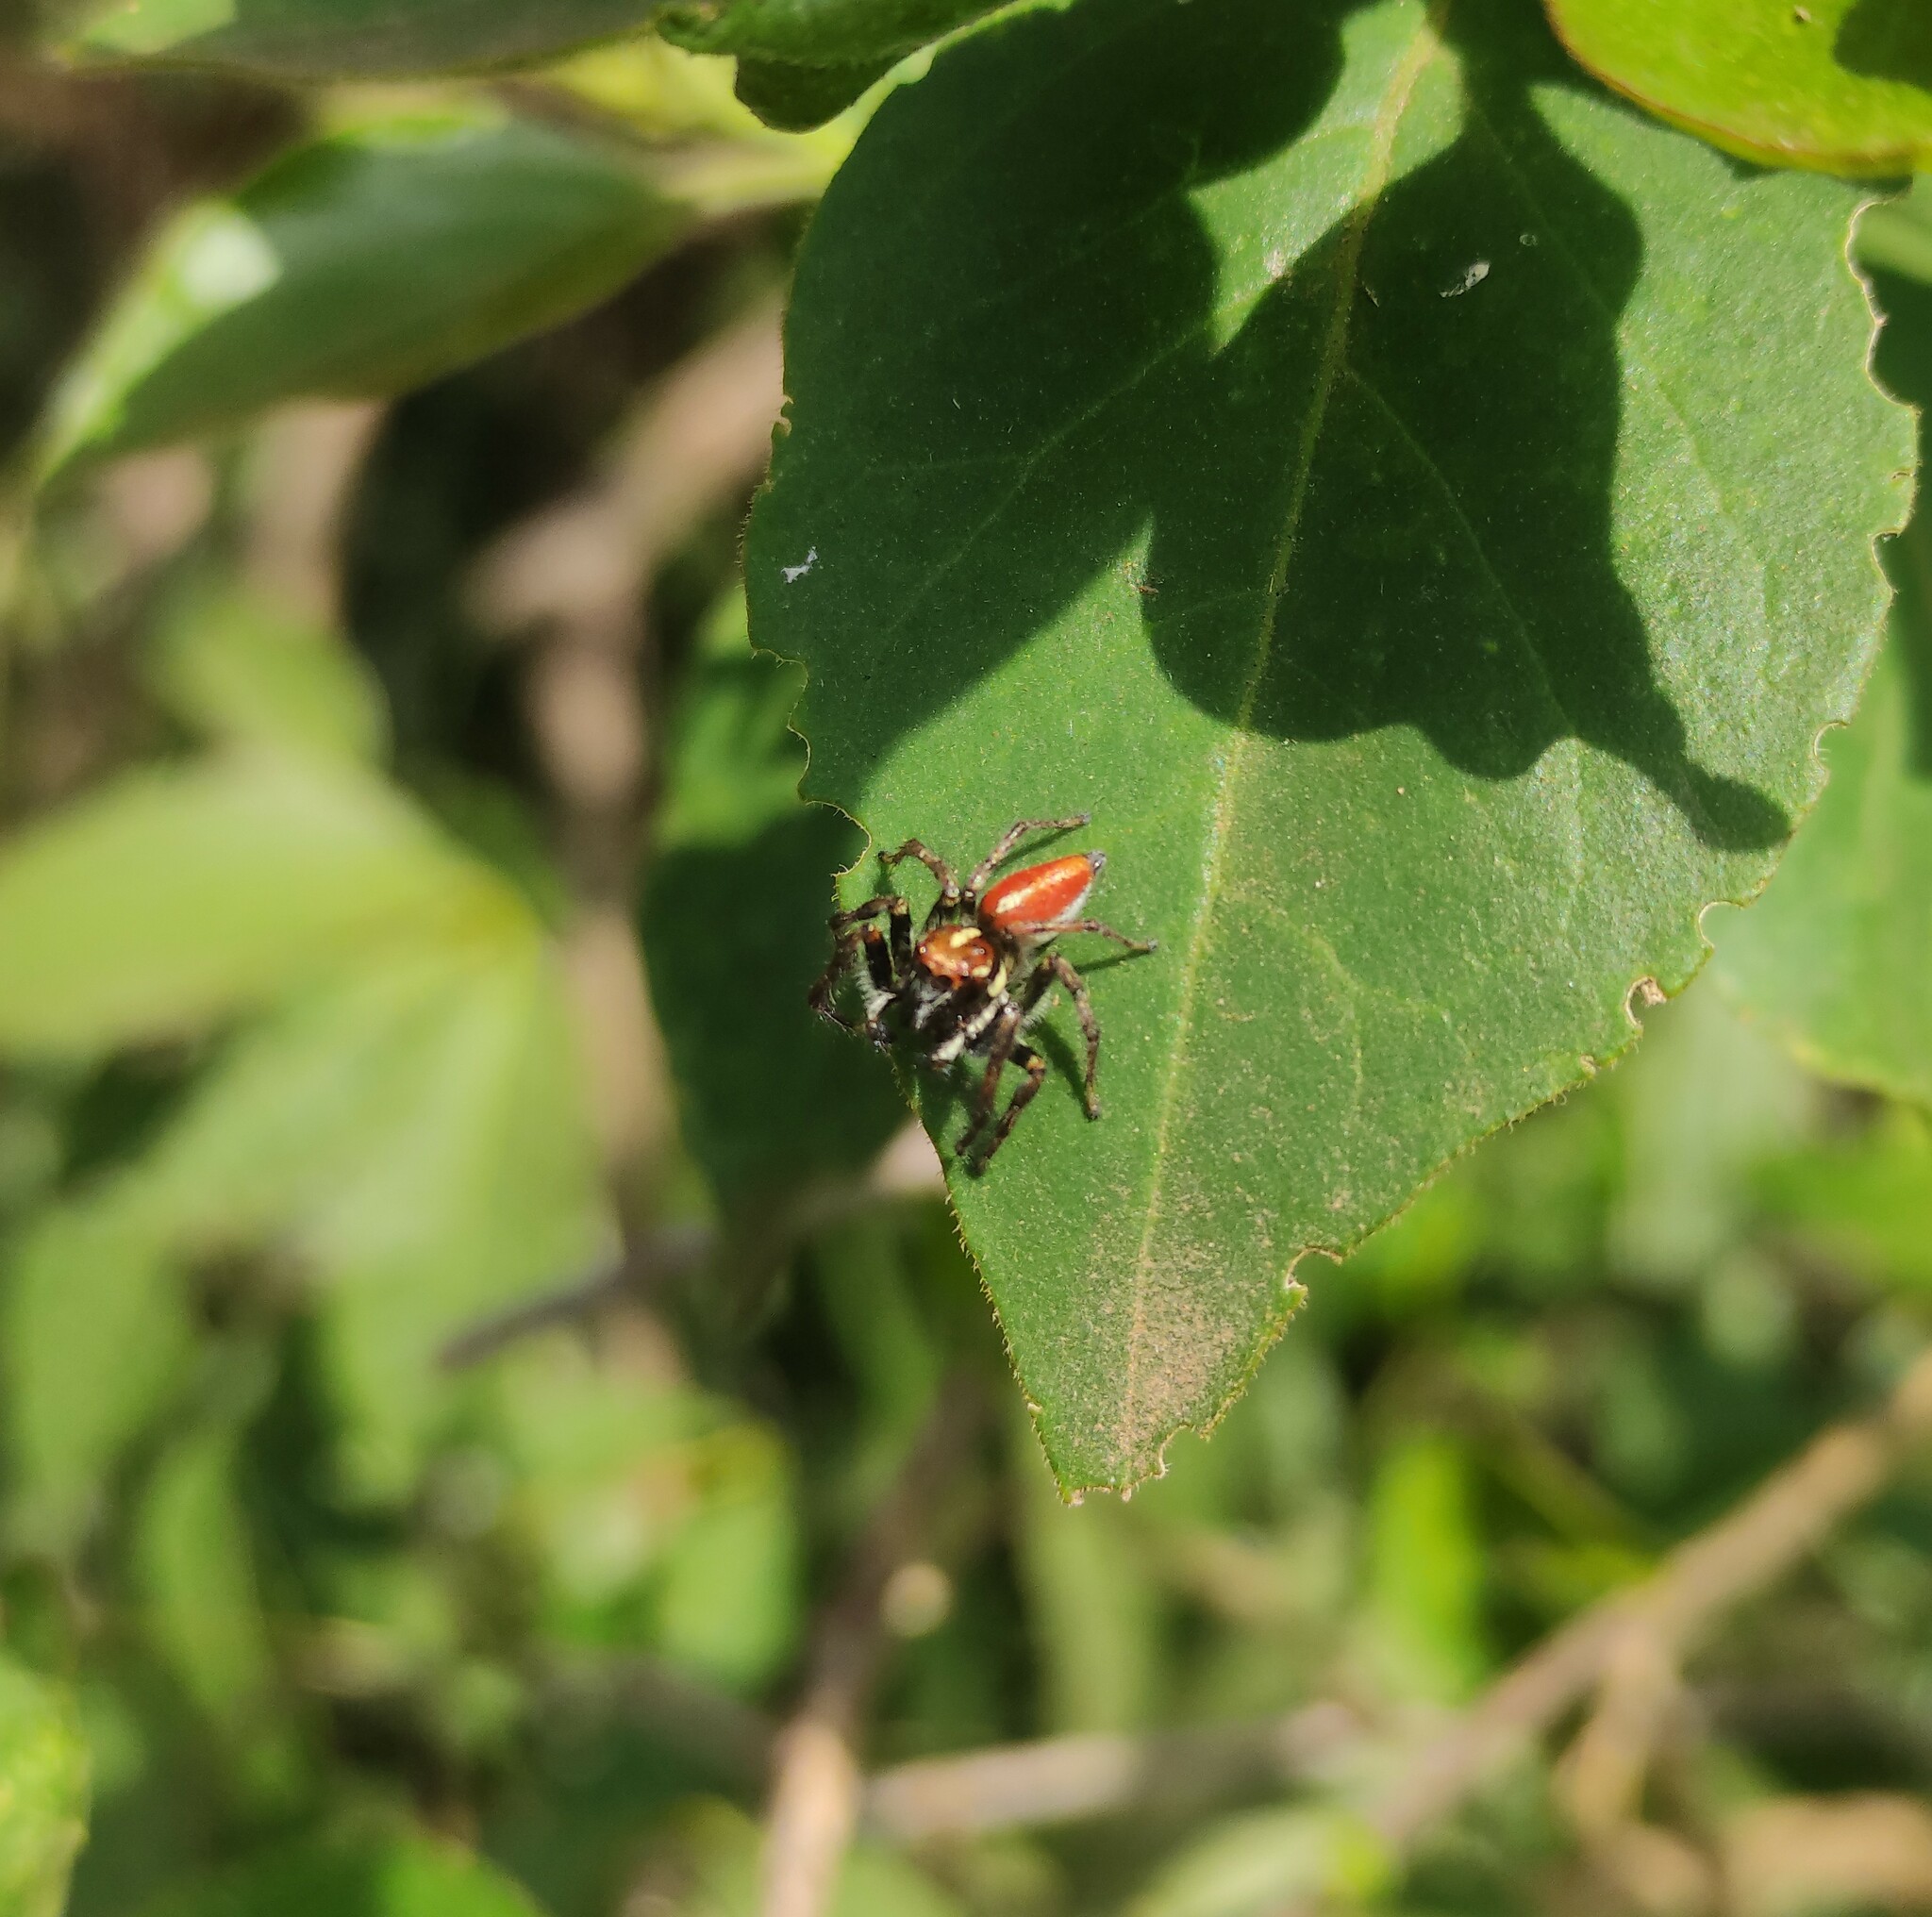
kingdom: Animalia
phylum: Arthropoda
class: Arachnida
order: Araneae
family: Salticidae
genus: Frigga
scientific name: Frigga quintensis
